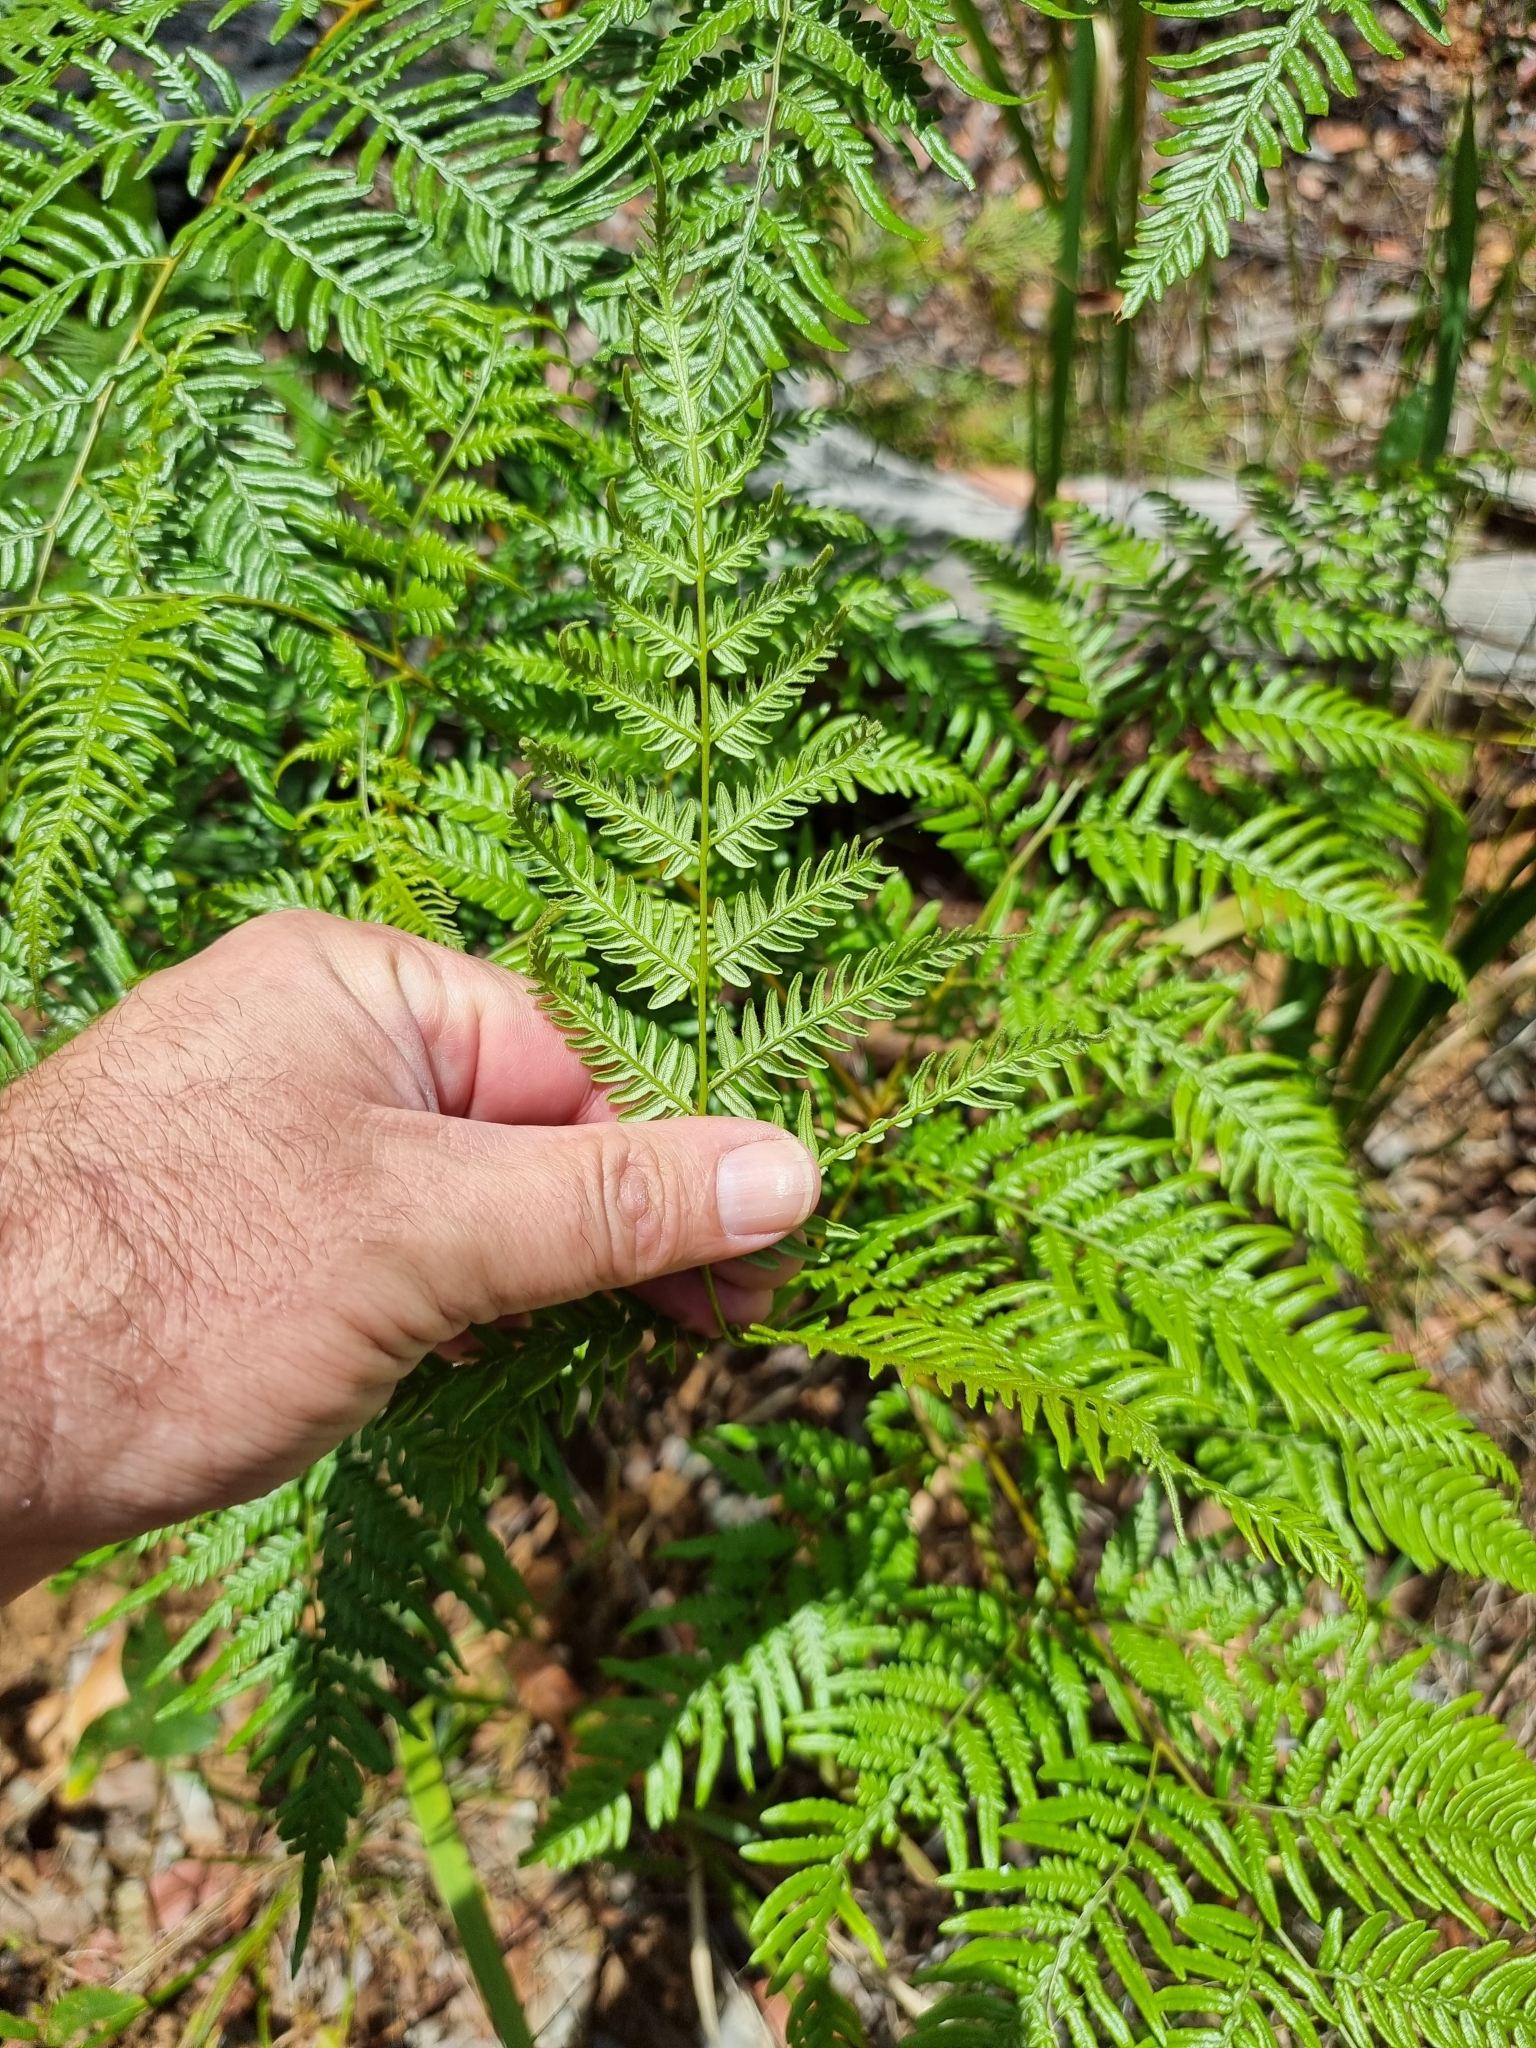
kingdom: Plantae
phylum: Tracheophyta
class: Polypodiopsida
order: Polypodiales
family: Dennstaedtiaceae
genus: Pteridium
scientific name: Pteridium esculentum
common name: Bracken fern
